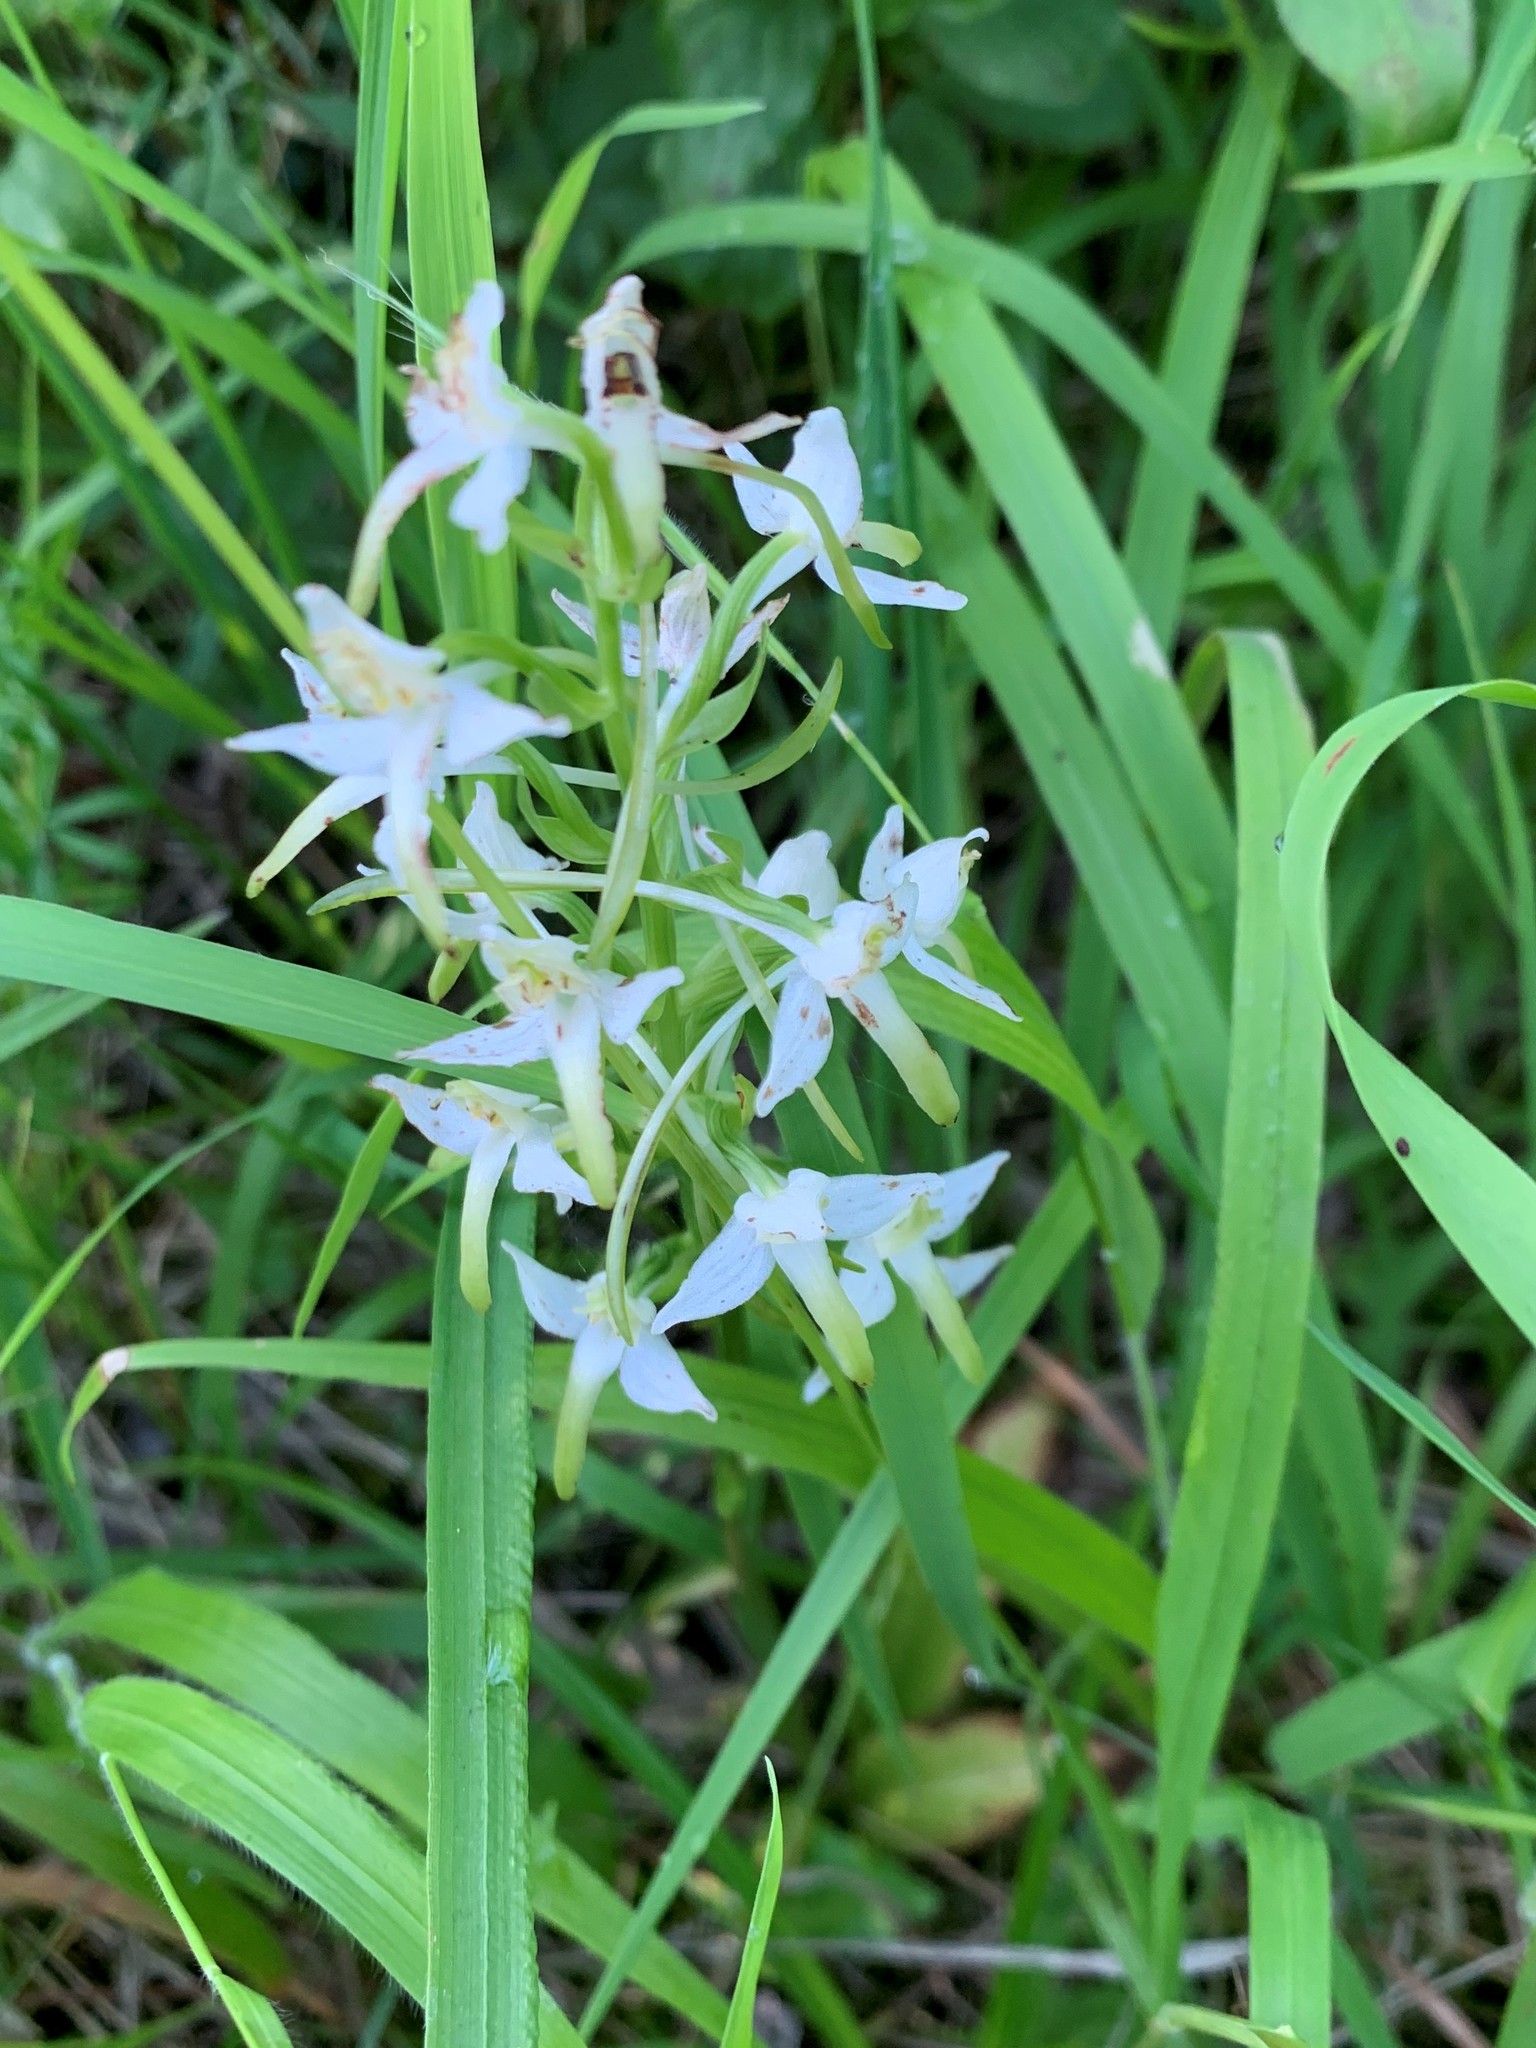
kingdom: Plantae
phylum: Tracheophyta
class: Liliopsida
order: Asparagales
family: Orchidaceae
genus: Platanthera
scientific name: Platanthera bifolia
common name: Lesser butterfly-orchid
